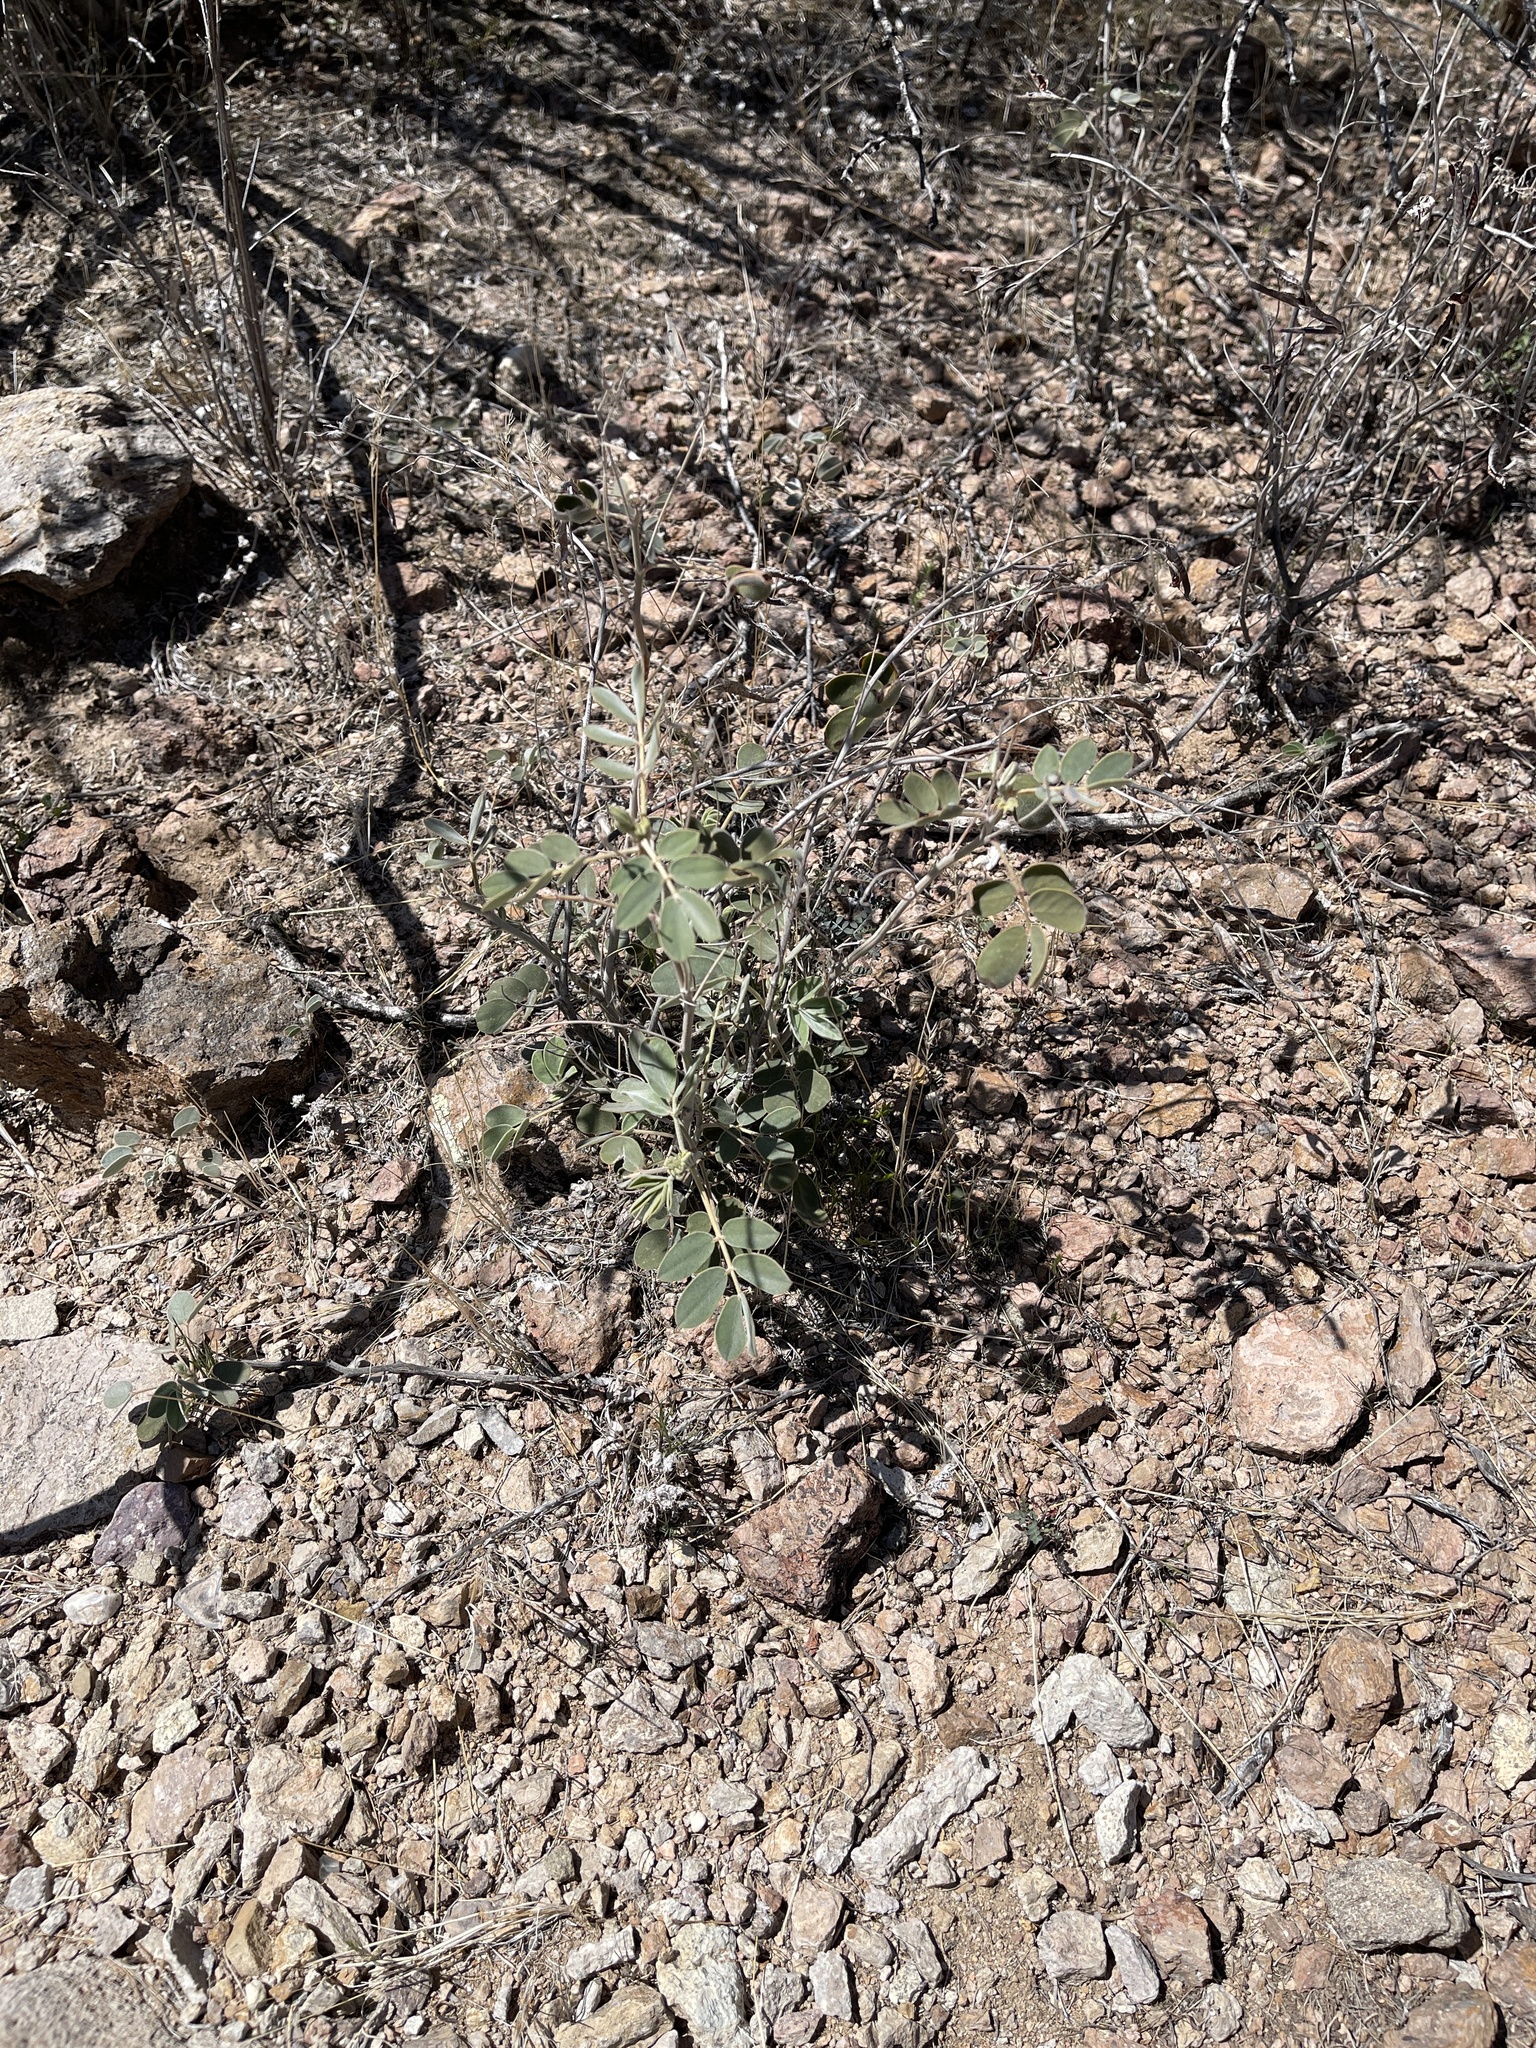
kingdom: Plantae
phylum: Tracheophyta
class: Magnoliopsida
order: Fabales
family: Fabaceae
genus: Senna
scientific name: Senna covesii
